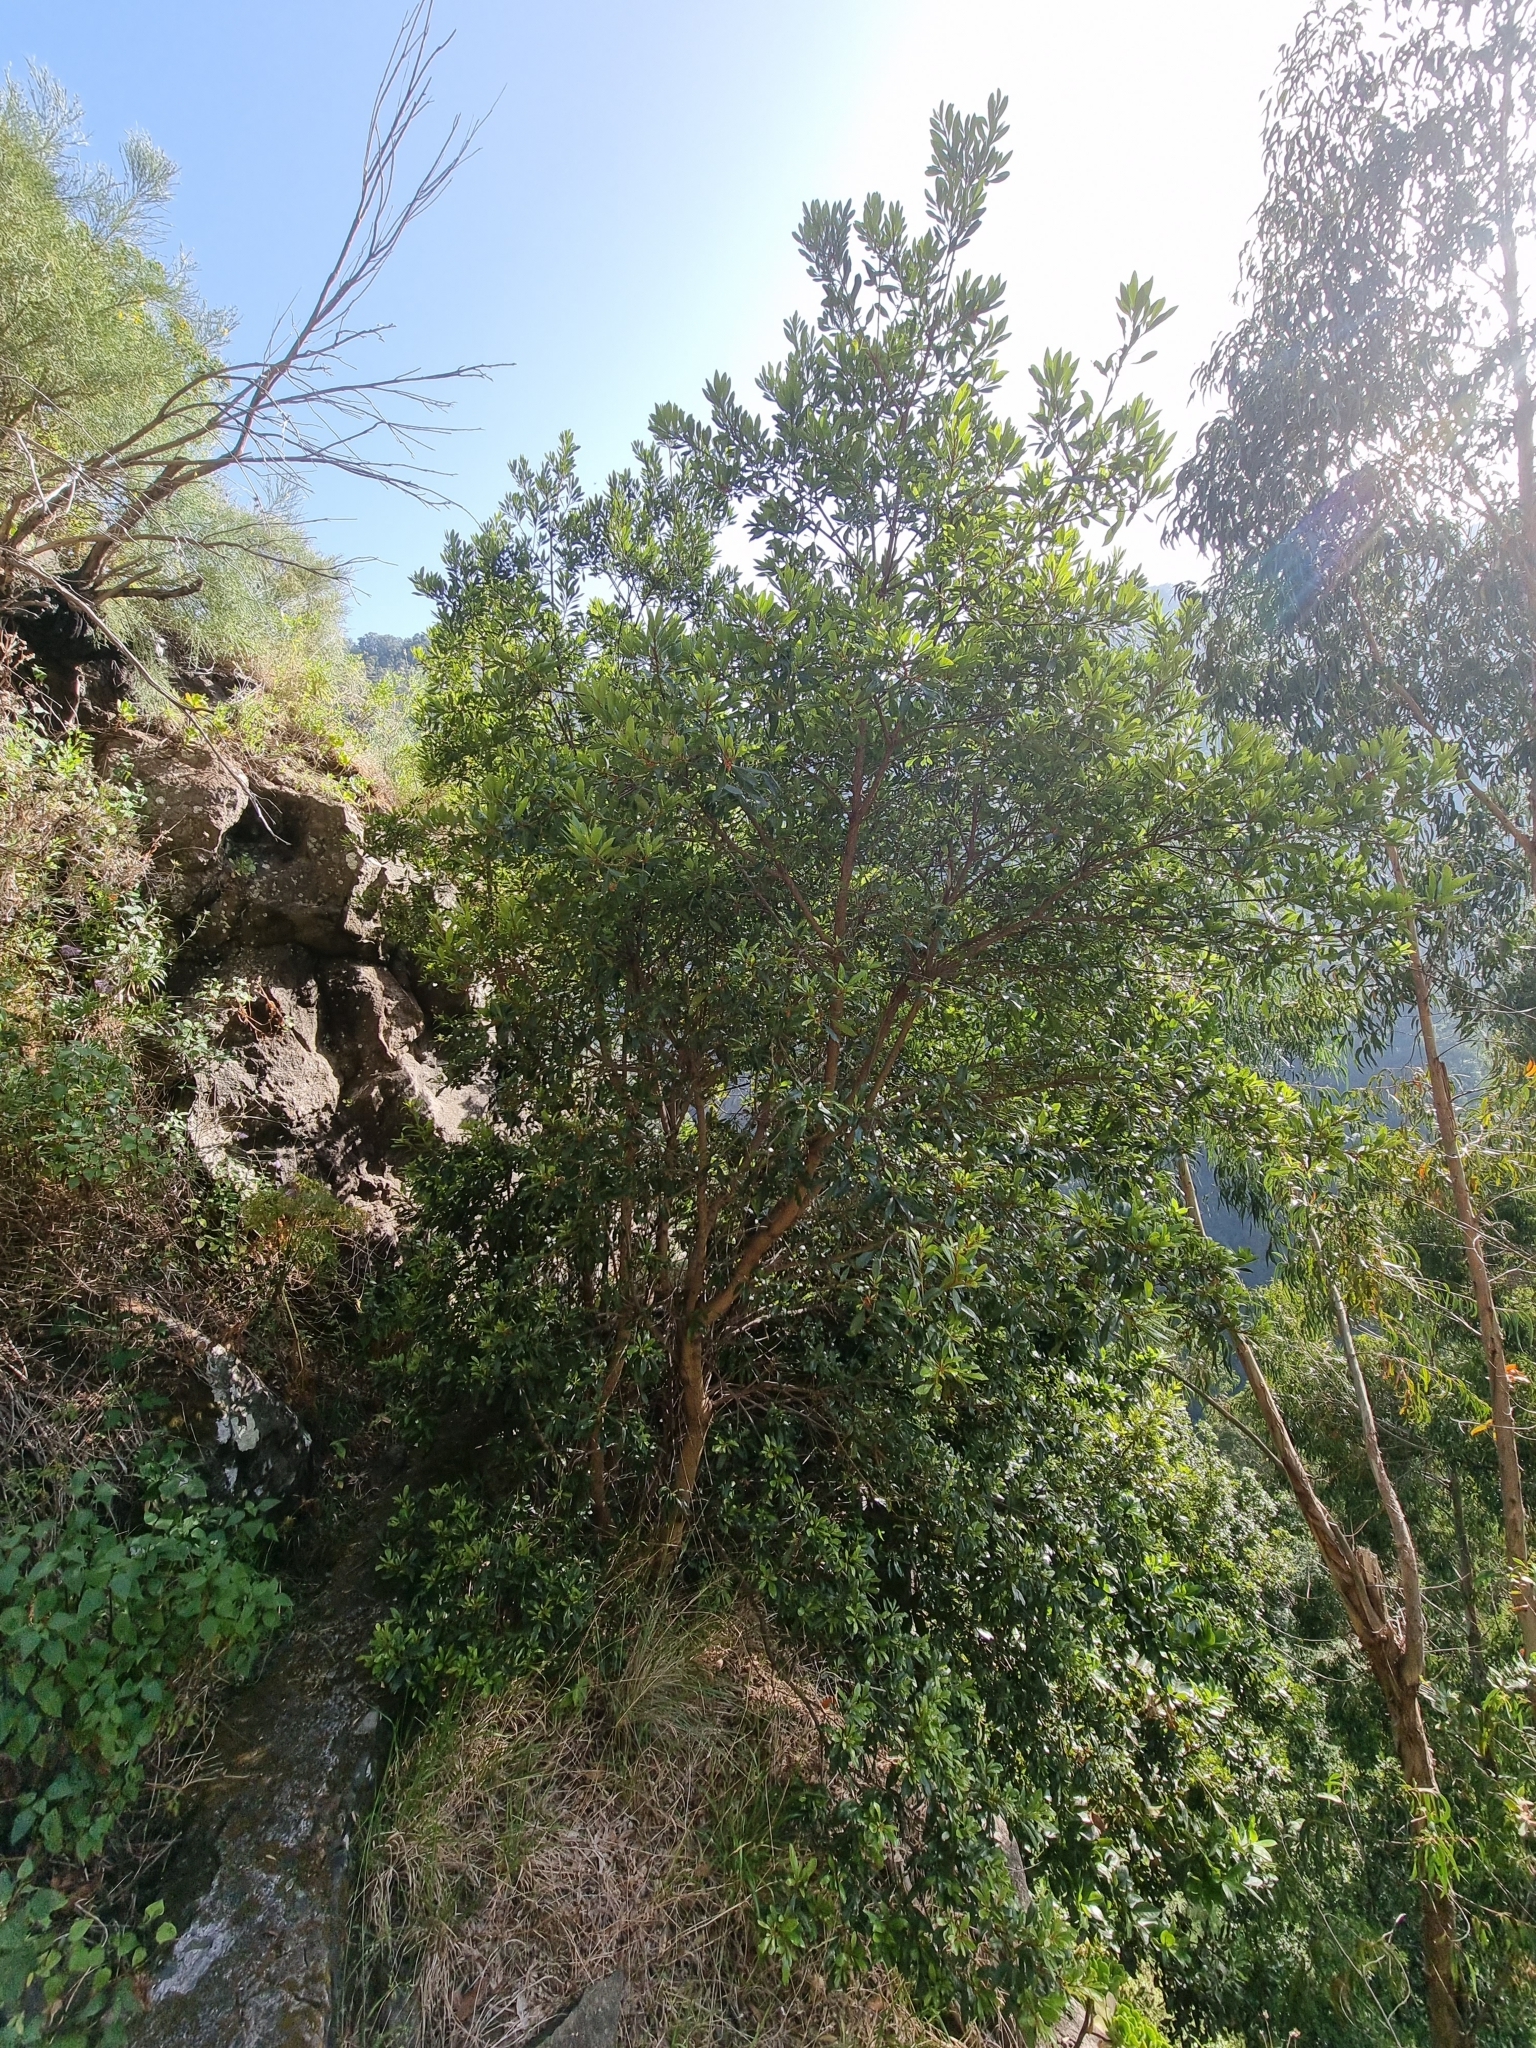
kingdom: Plantae
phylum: Tracheophyta
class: Magnoliopsida
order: Fagales
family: Myricaceae
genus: Morella
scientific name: Morella faya
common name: Firetree
